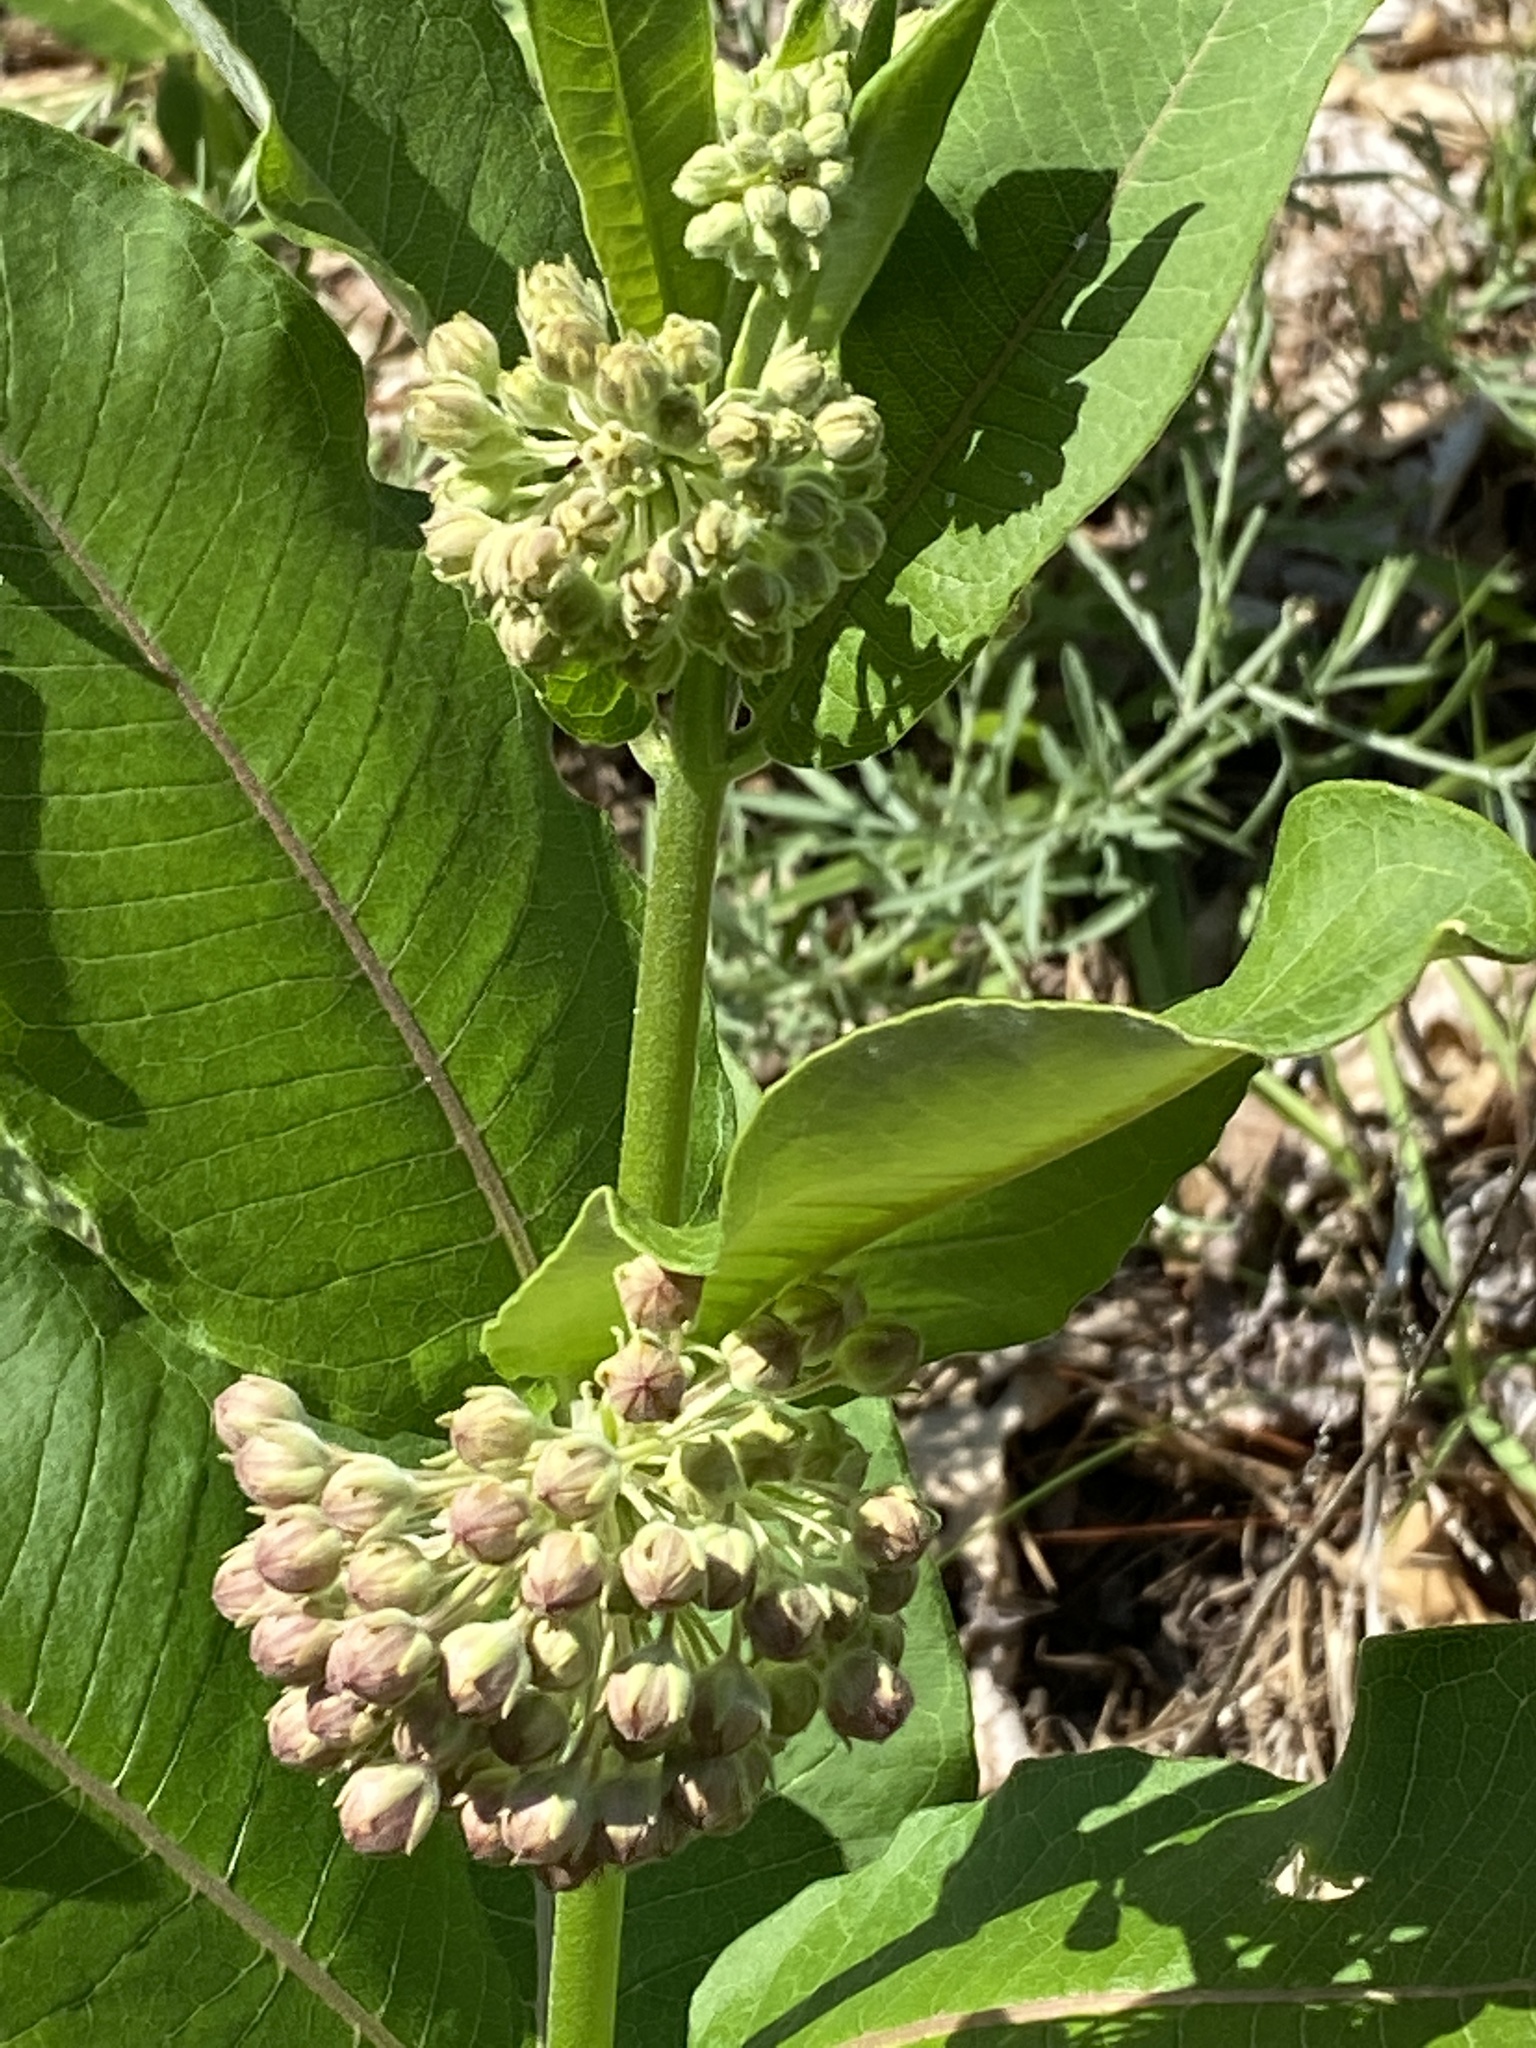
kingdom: Plantae
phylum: Tracheophyta
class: Magnoliopsida
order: Gentianales
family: Apocynaceae
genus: Asclepias
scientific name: Asclepias syriaca
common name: Common milkweed
